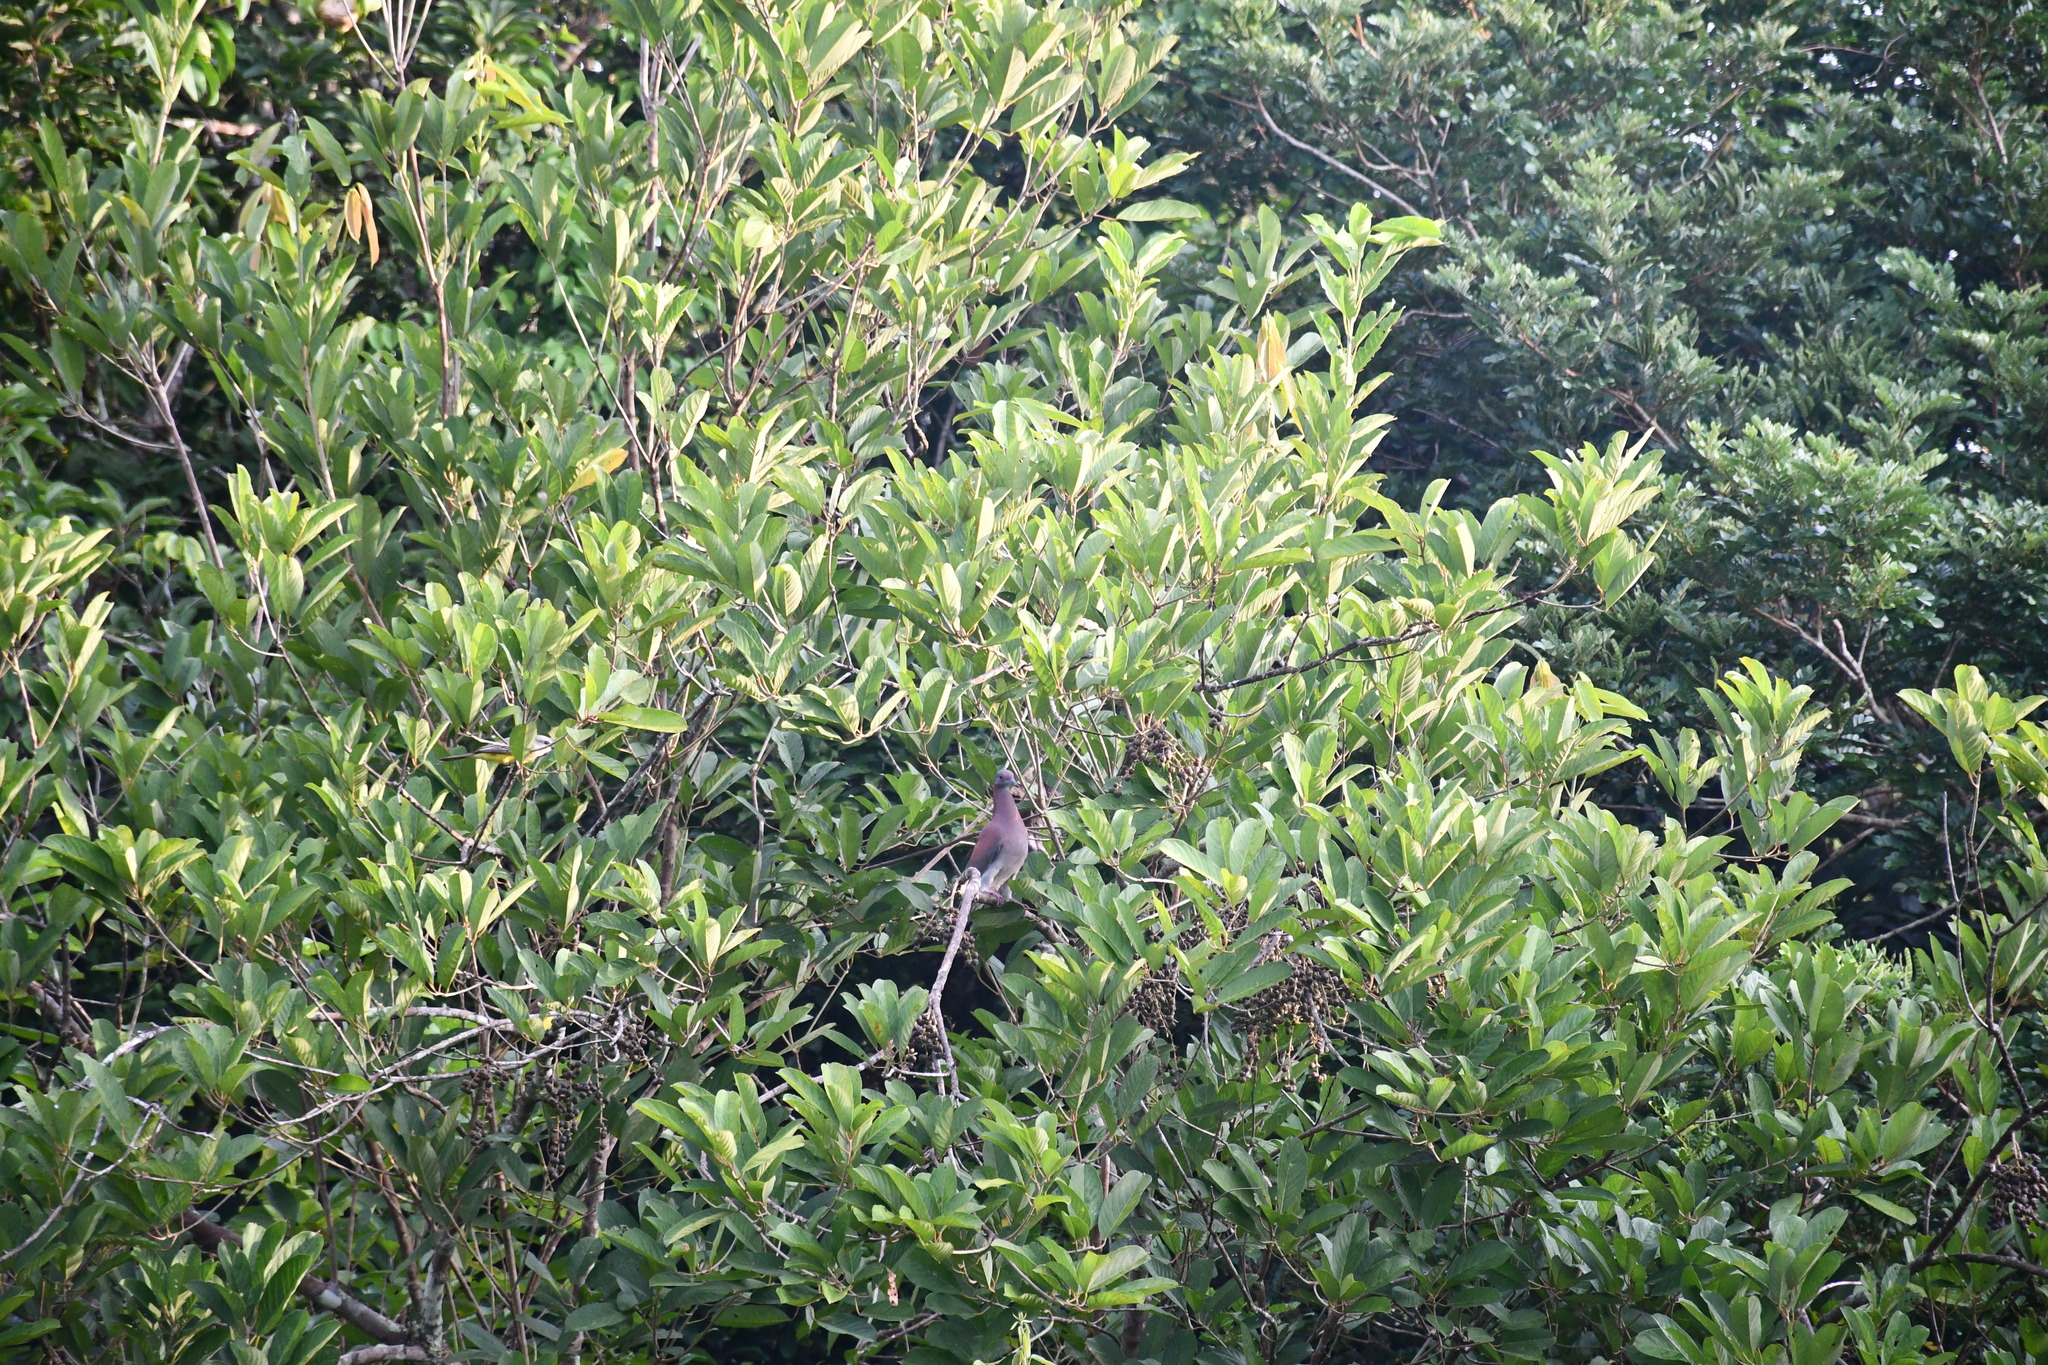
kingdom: Animalia
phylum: Chordata
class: Aves
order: Columbiformes
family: Columbidae
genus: Patagioenas
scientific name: Patagioenas cayennensis
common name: Pale-vented pigeon
